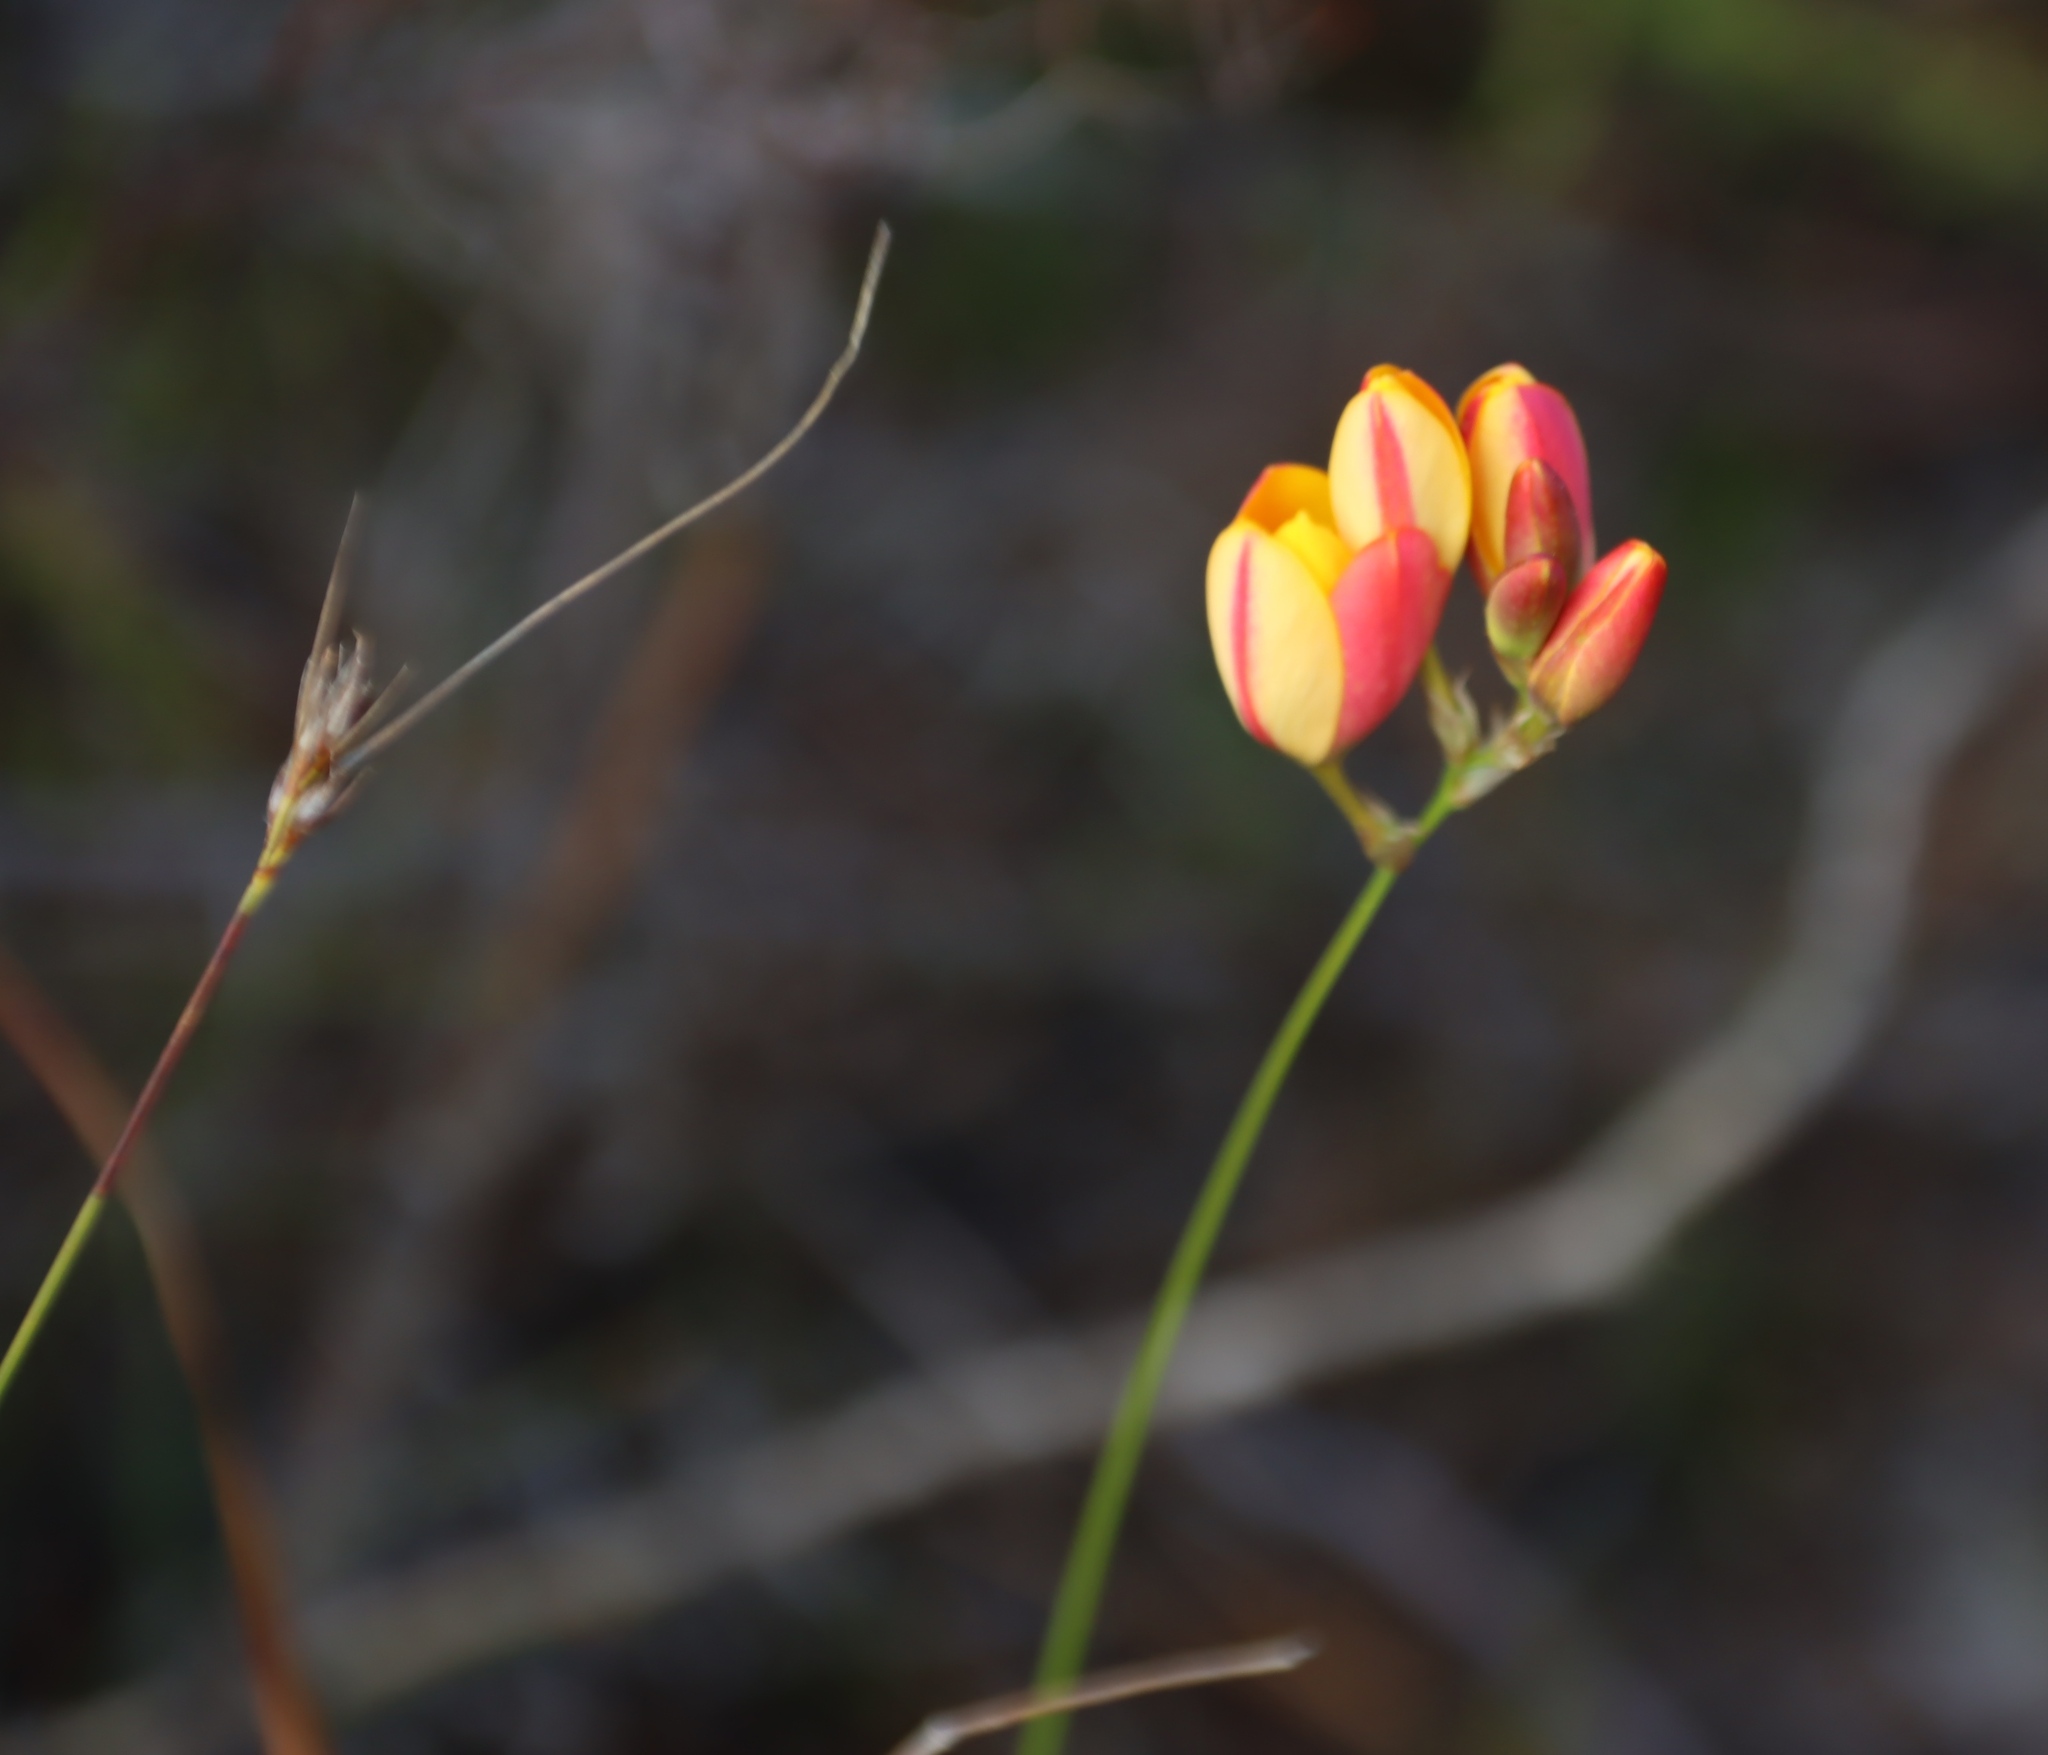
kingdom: Plantae
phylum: Tracheophyta
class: Liliopsida
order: Asparagales
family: Iridaceae
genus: Ixia
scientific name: Ixia dubia
